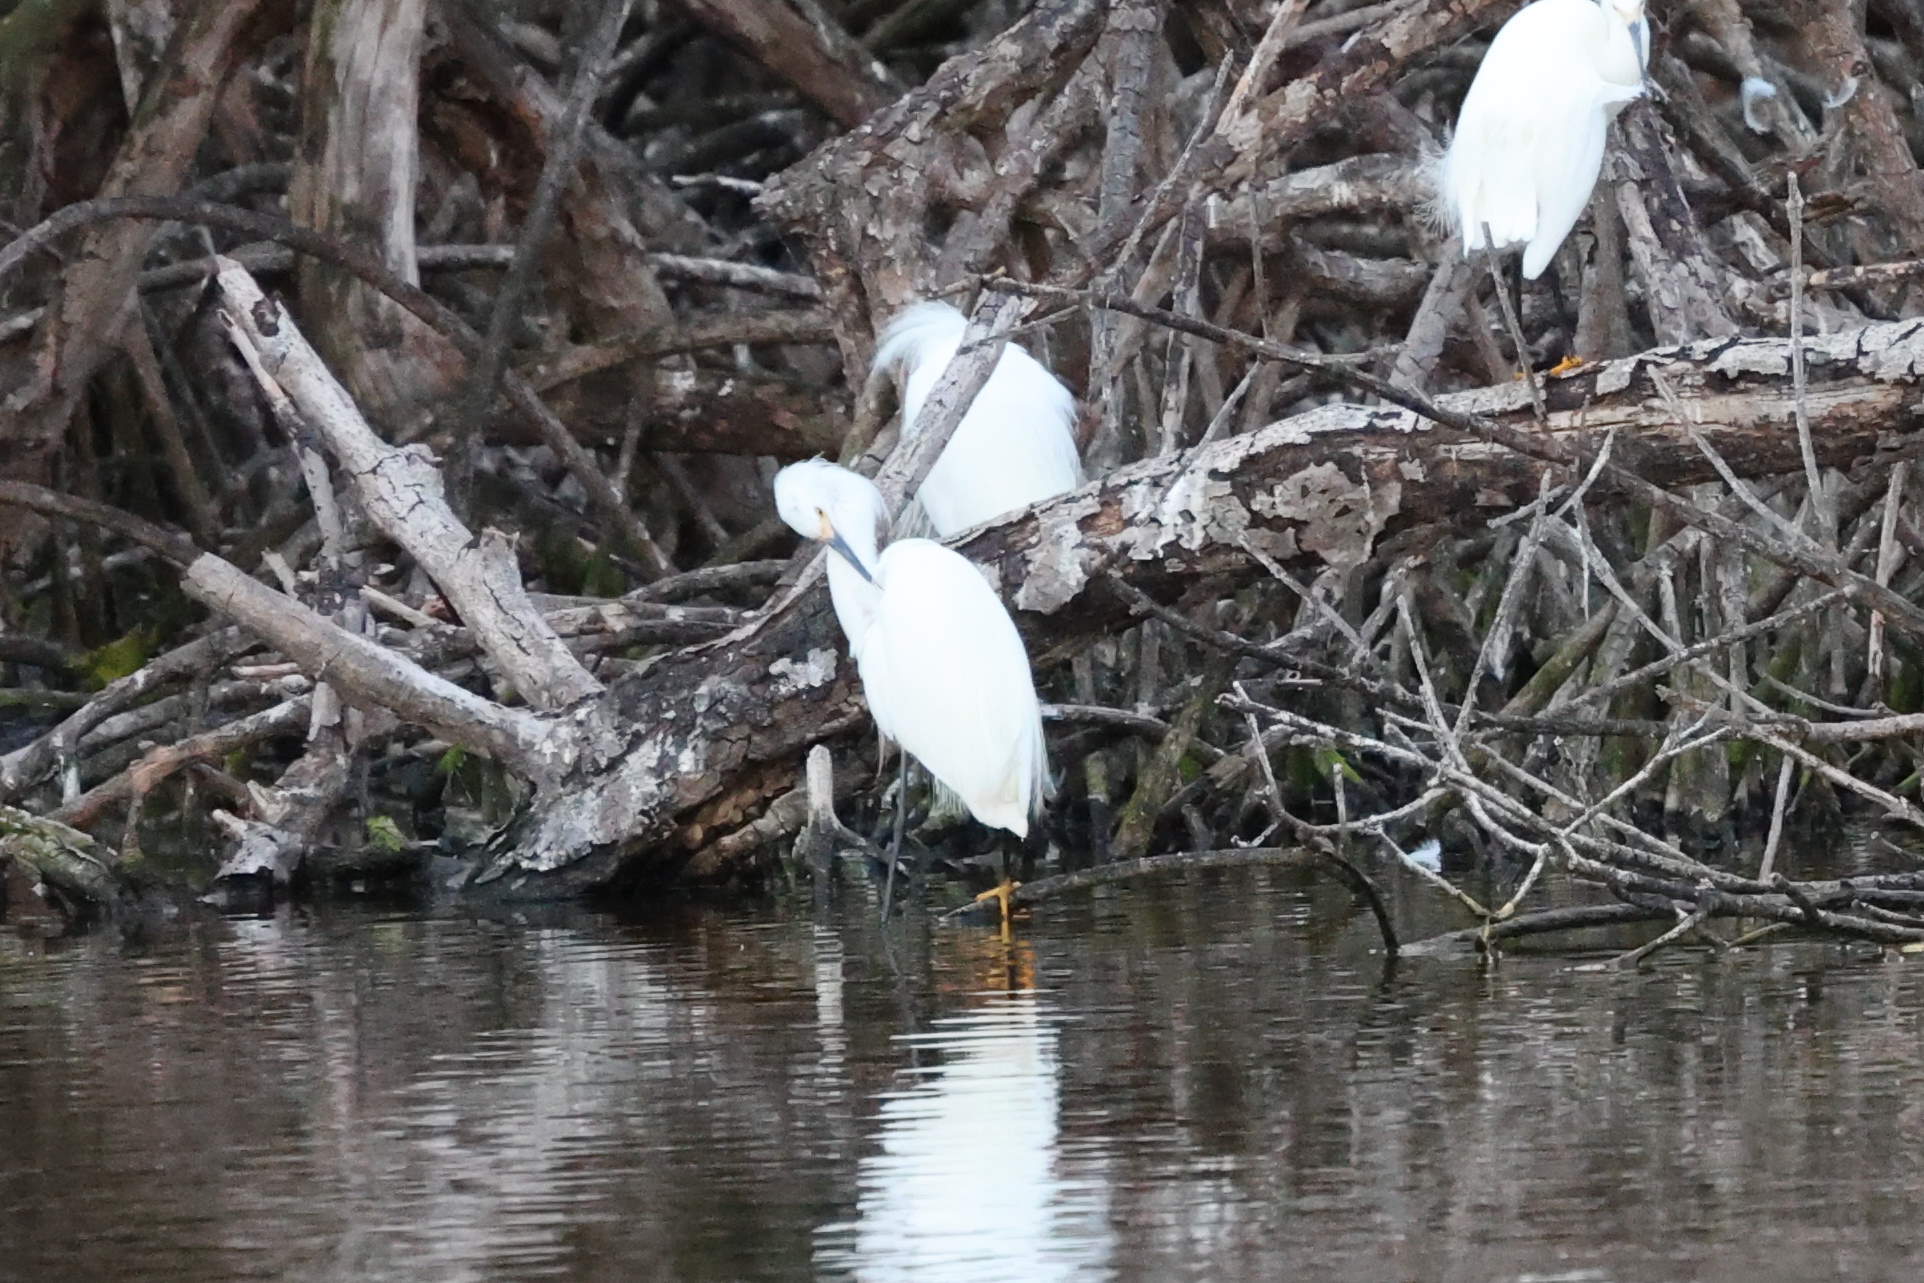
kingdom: Animalia
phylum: Chordata
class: Aves
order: Pelecaniformes
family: Ardeidae
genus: Egretta
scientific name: Egretta thula
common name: Snowy egret
